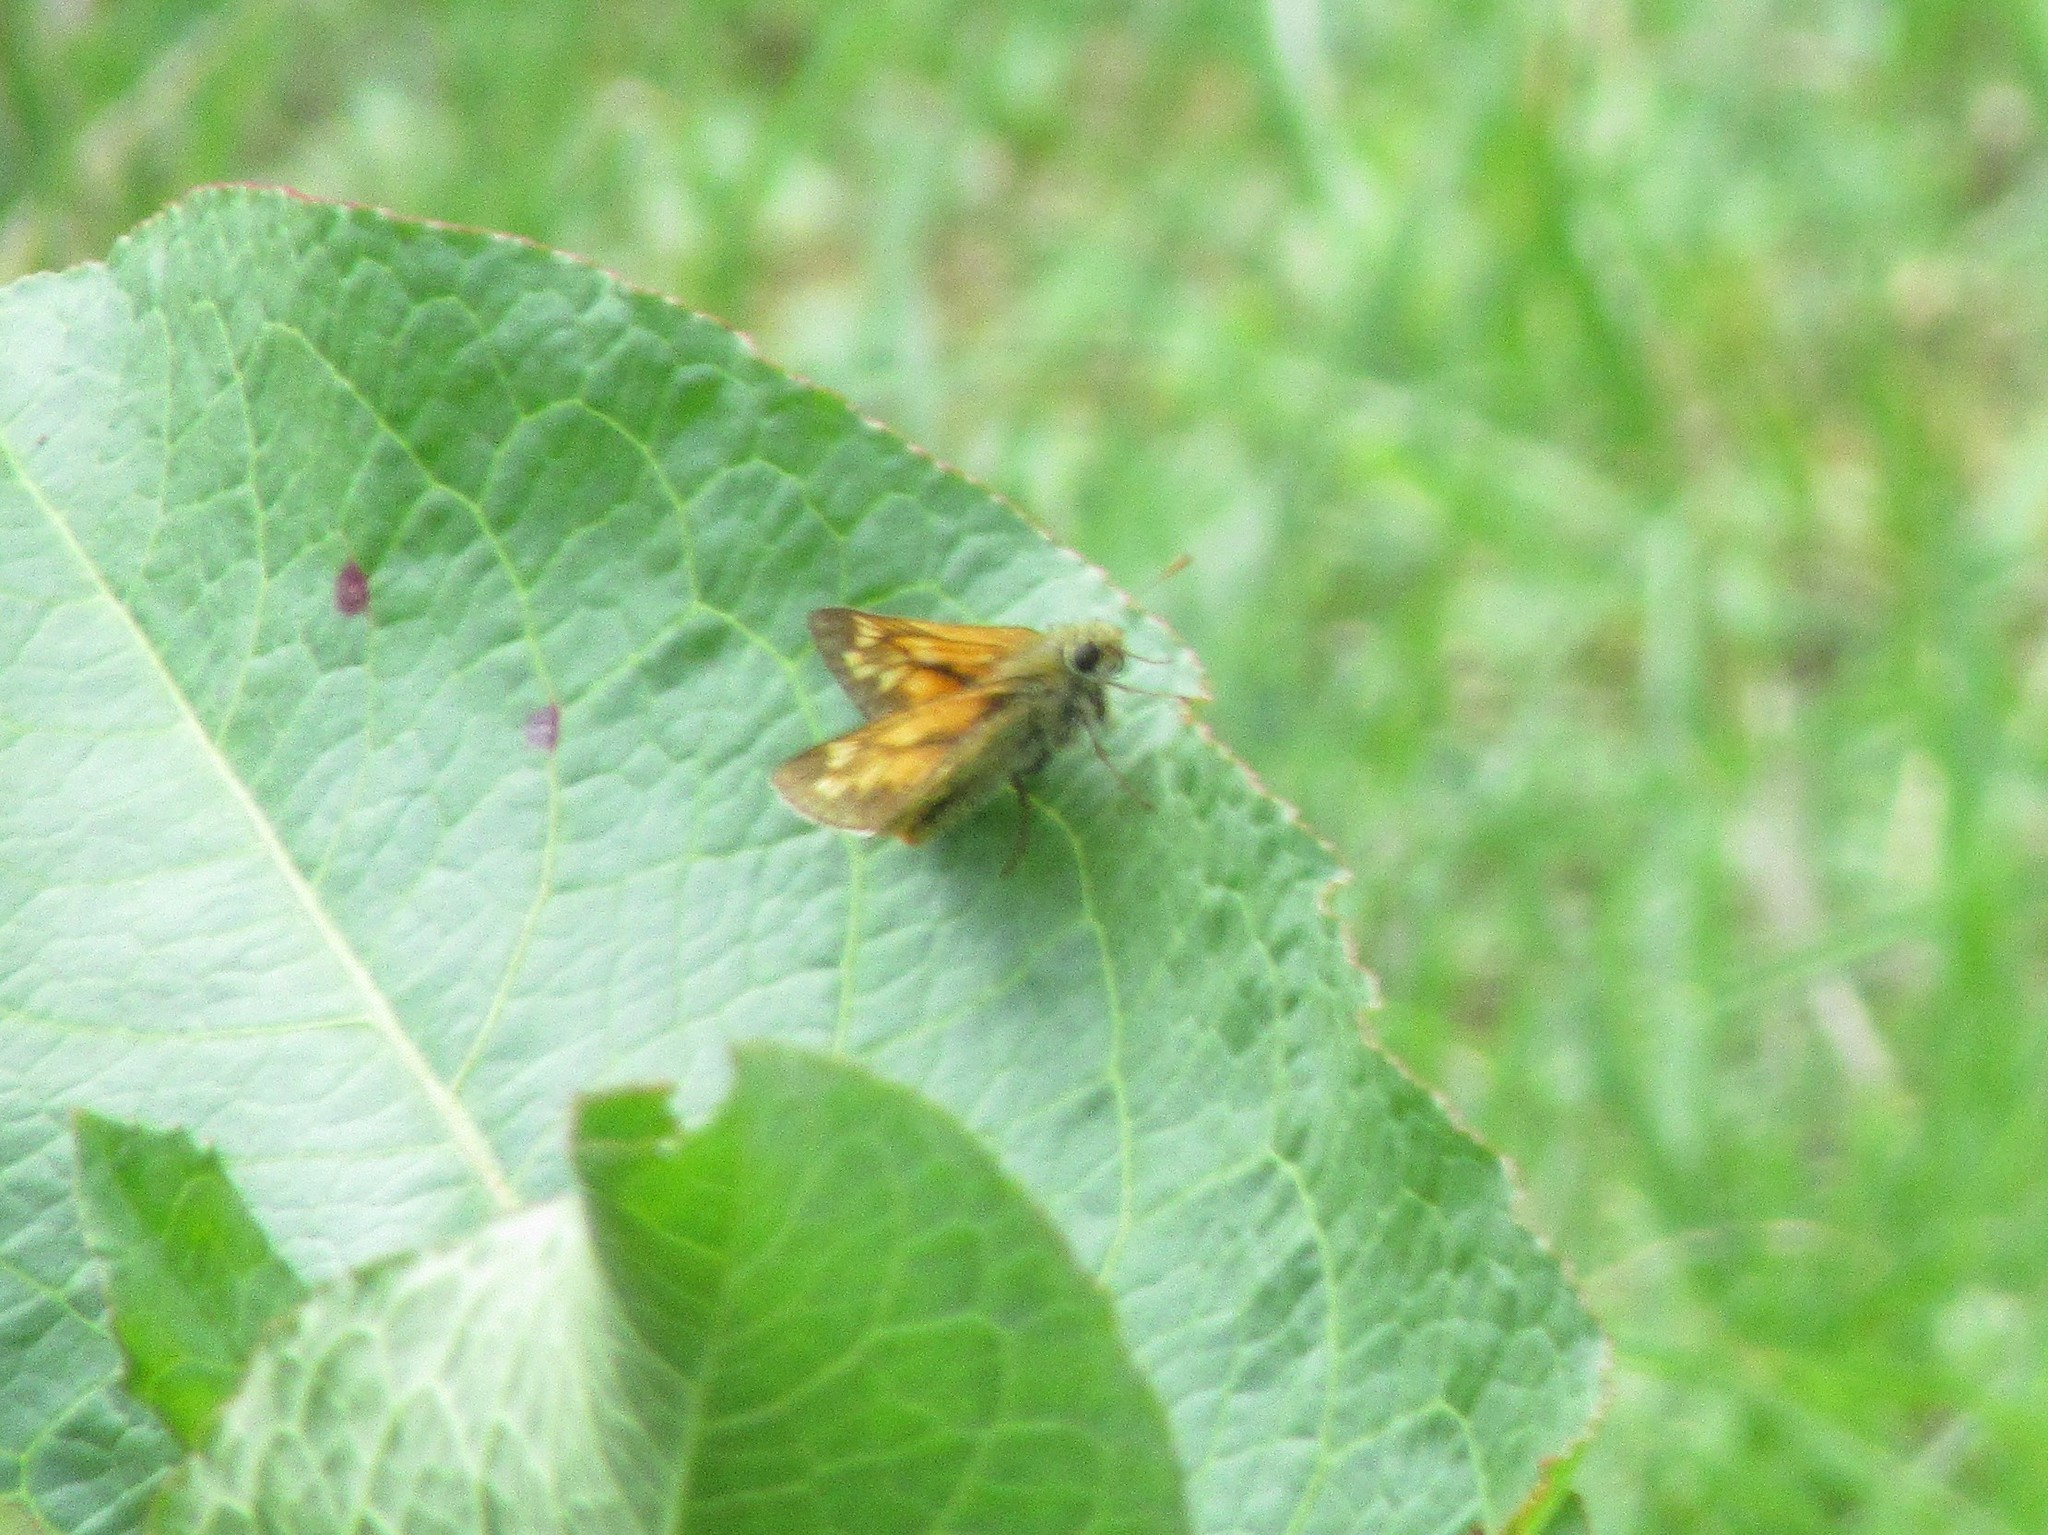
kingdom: Animalia
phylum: Arthropoda
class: Insecta
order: Lepidoptera
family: Hesperiidae
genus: Ochlodes
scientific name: Ochlodes venata
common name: Large skipper
